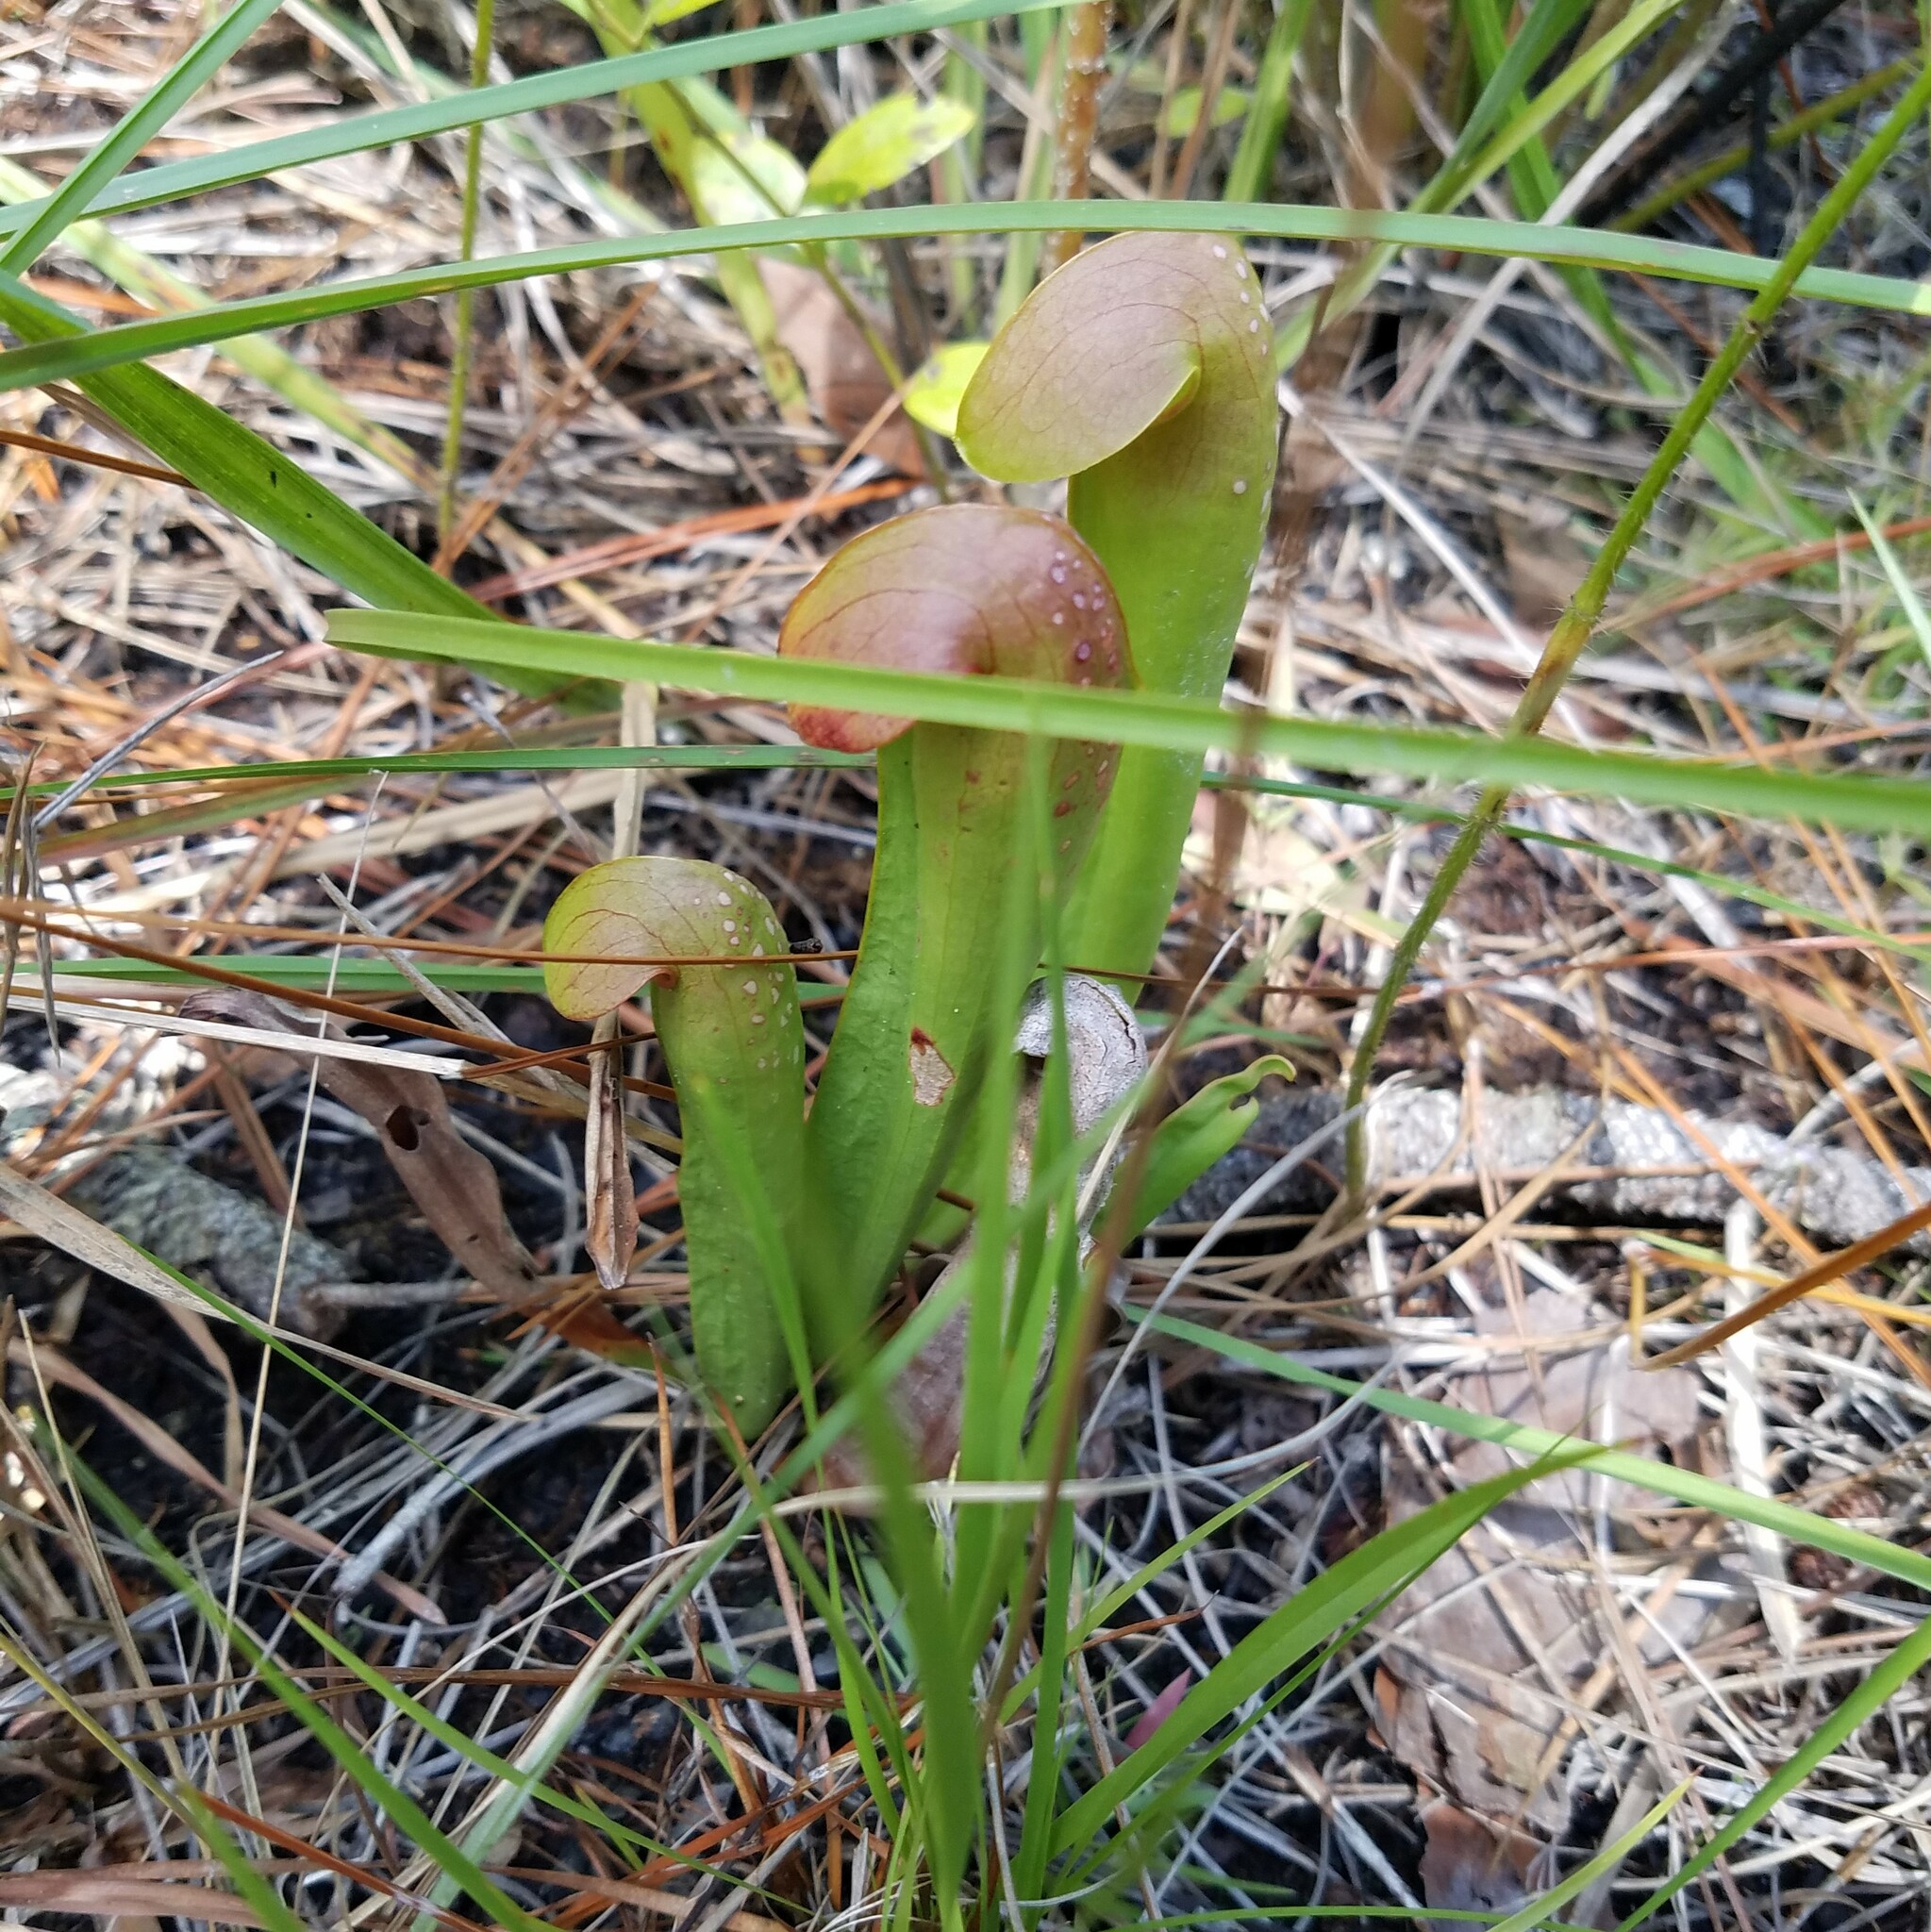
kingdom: Plantae
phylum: Tracheophyta
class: Magnoliopsida
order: Ericales
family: Sarraceniaceae
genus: Sarracenia
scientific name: Sarracenia minor
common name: Rainhat-trumpet
